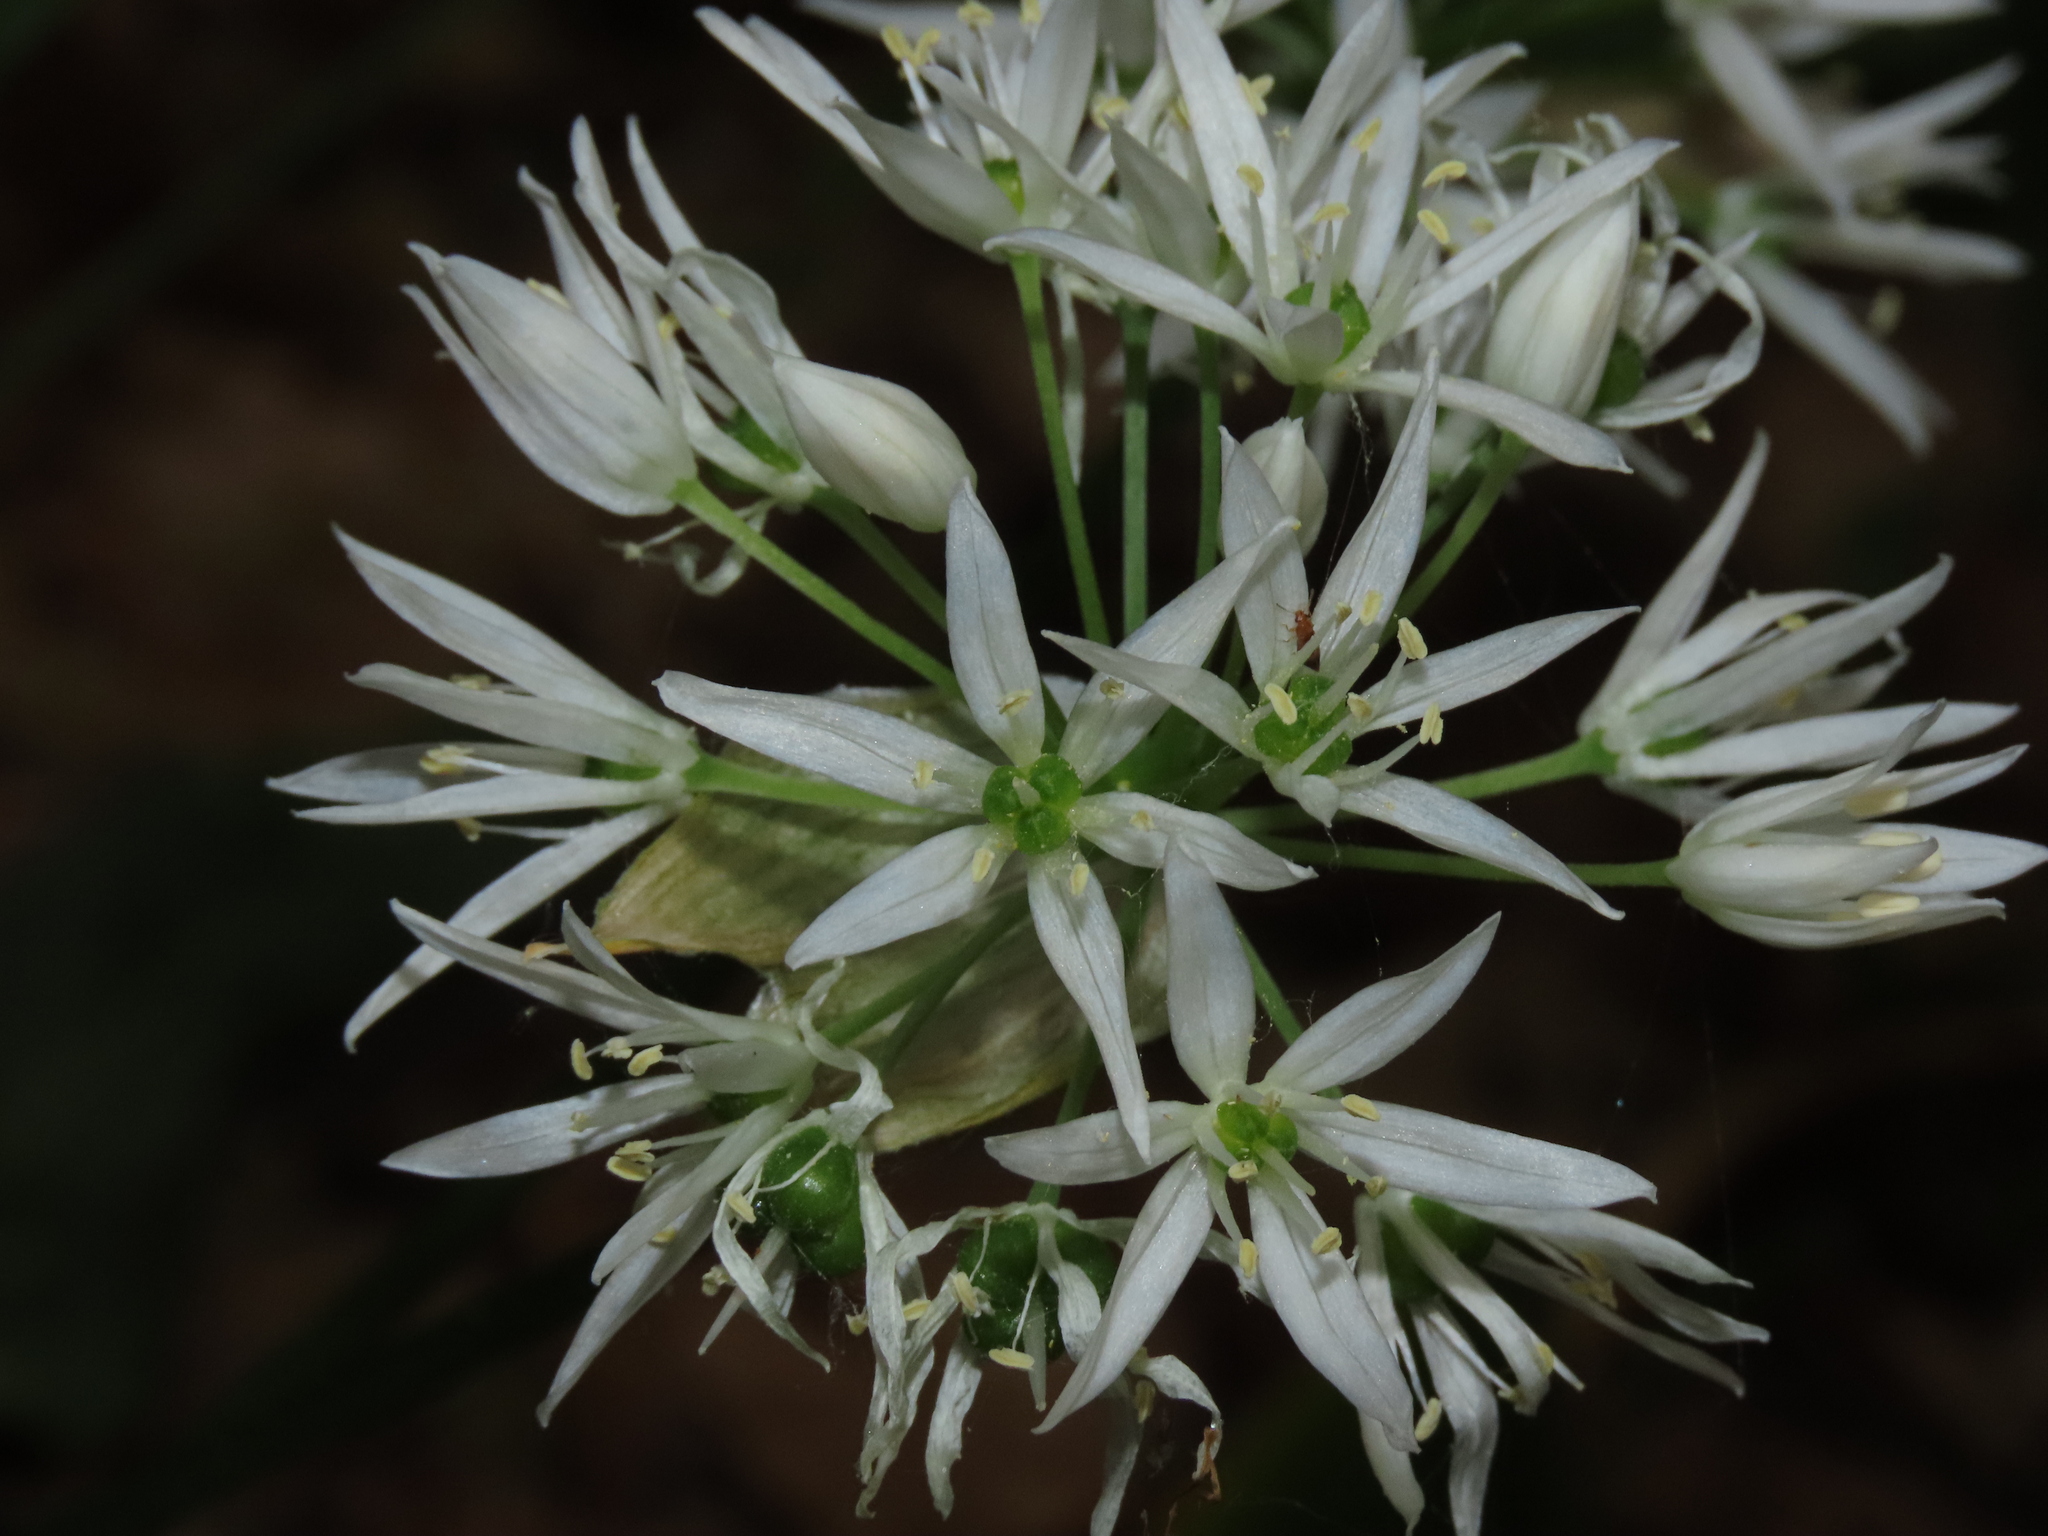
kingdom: Plantae
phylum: Tracheophyta
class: Liliopsida
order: Asparagales
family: Amaryllidaceae
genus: Allium
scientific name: Allium ursinum
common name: Ramsons
